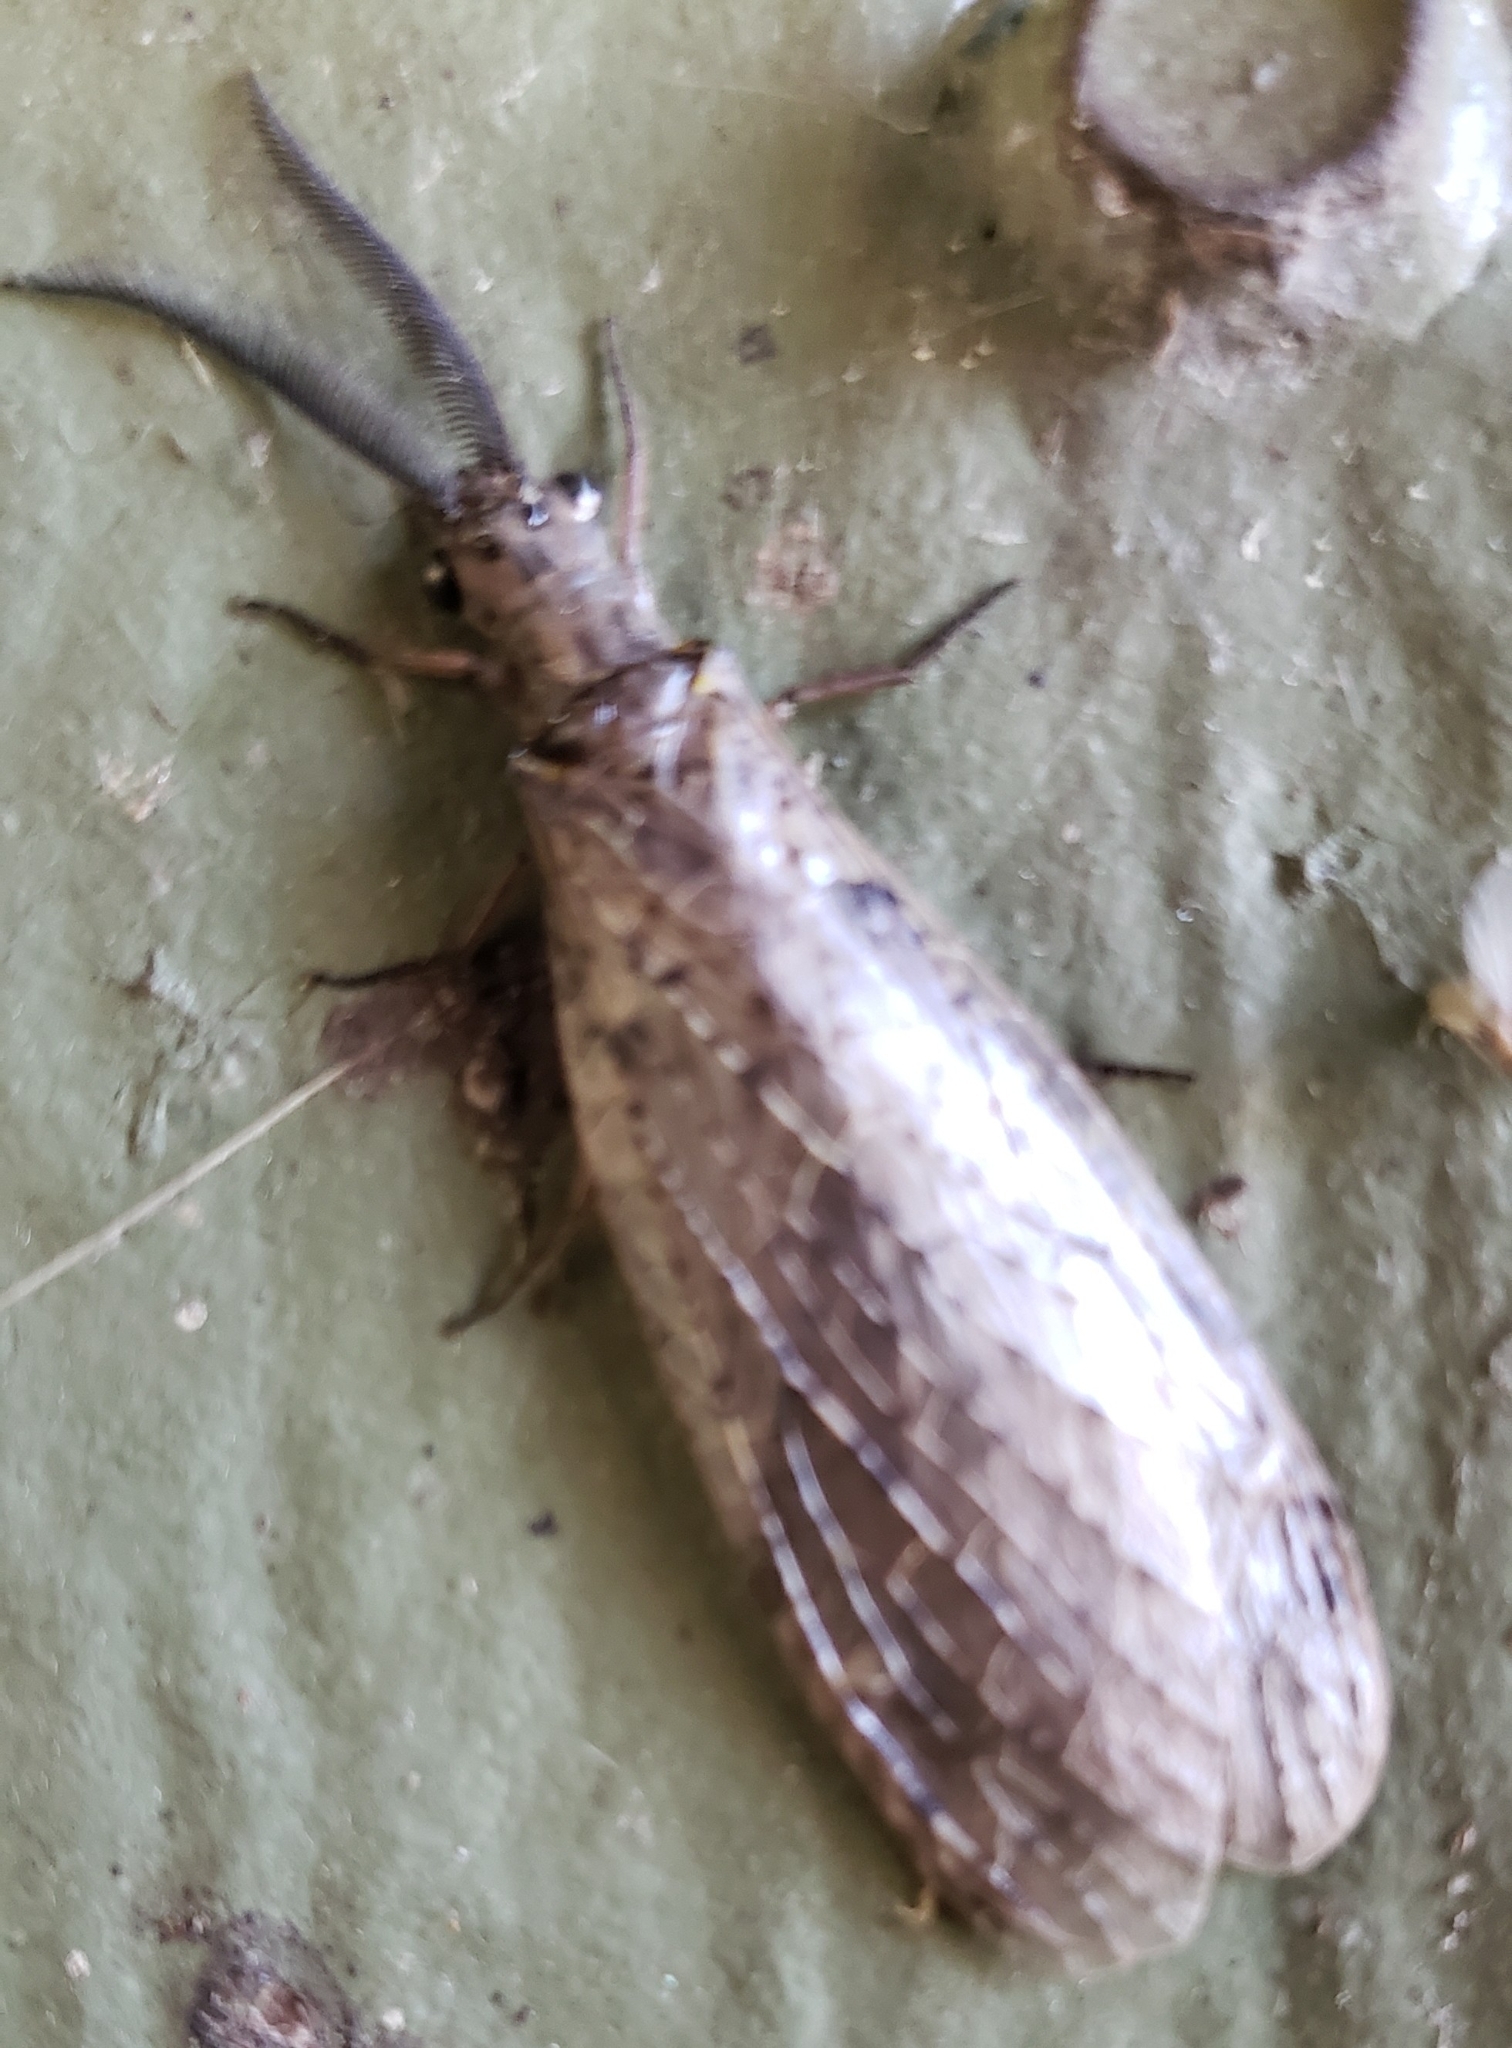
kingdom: Animalia
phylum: Arthropoda
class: Insecta
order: Megaloptera
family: Corydalidae
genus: Chauliodes
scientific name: Chauliodes rastricornis
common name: Spring fishfly
